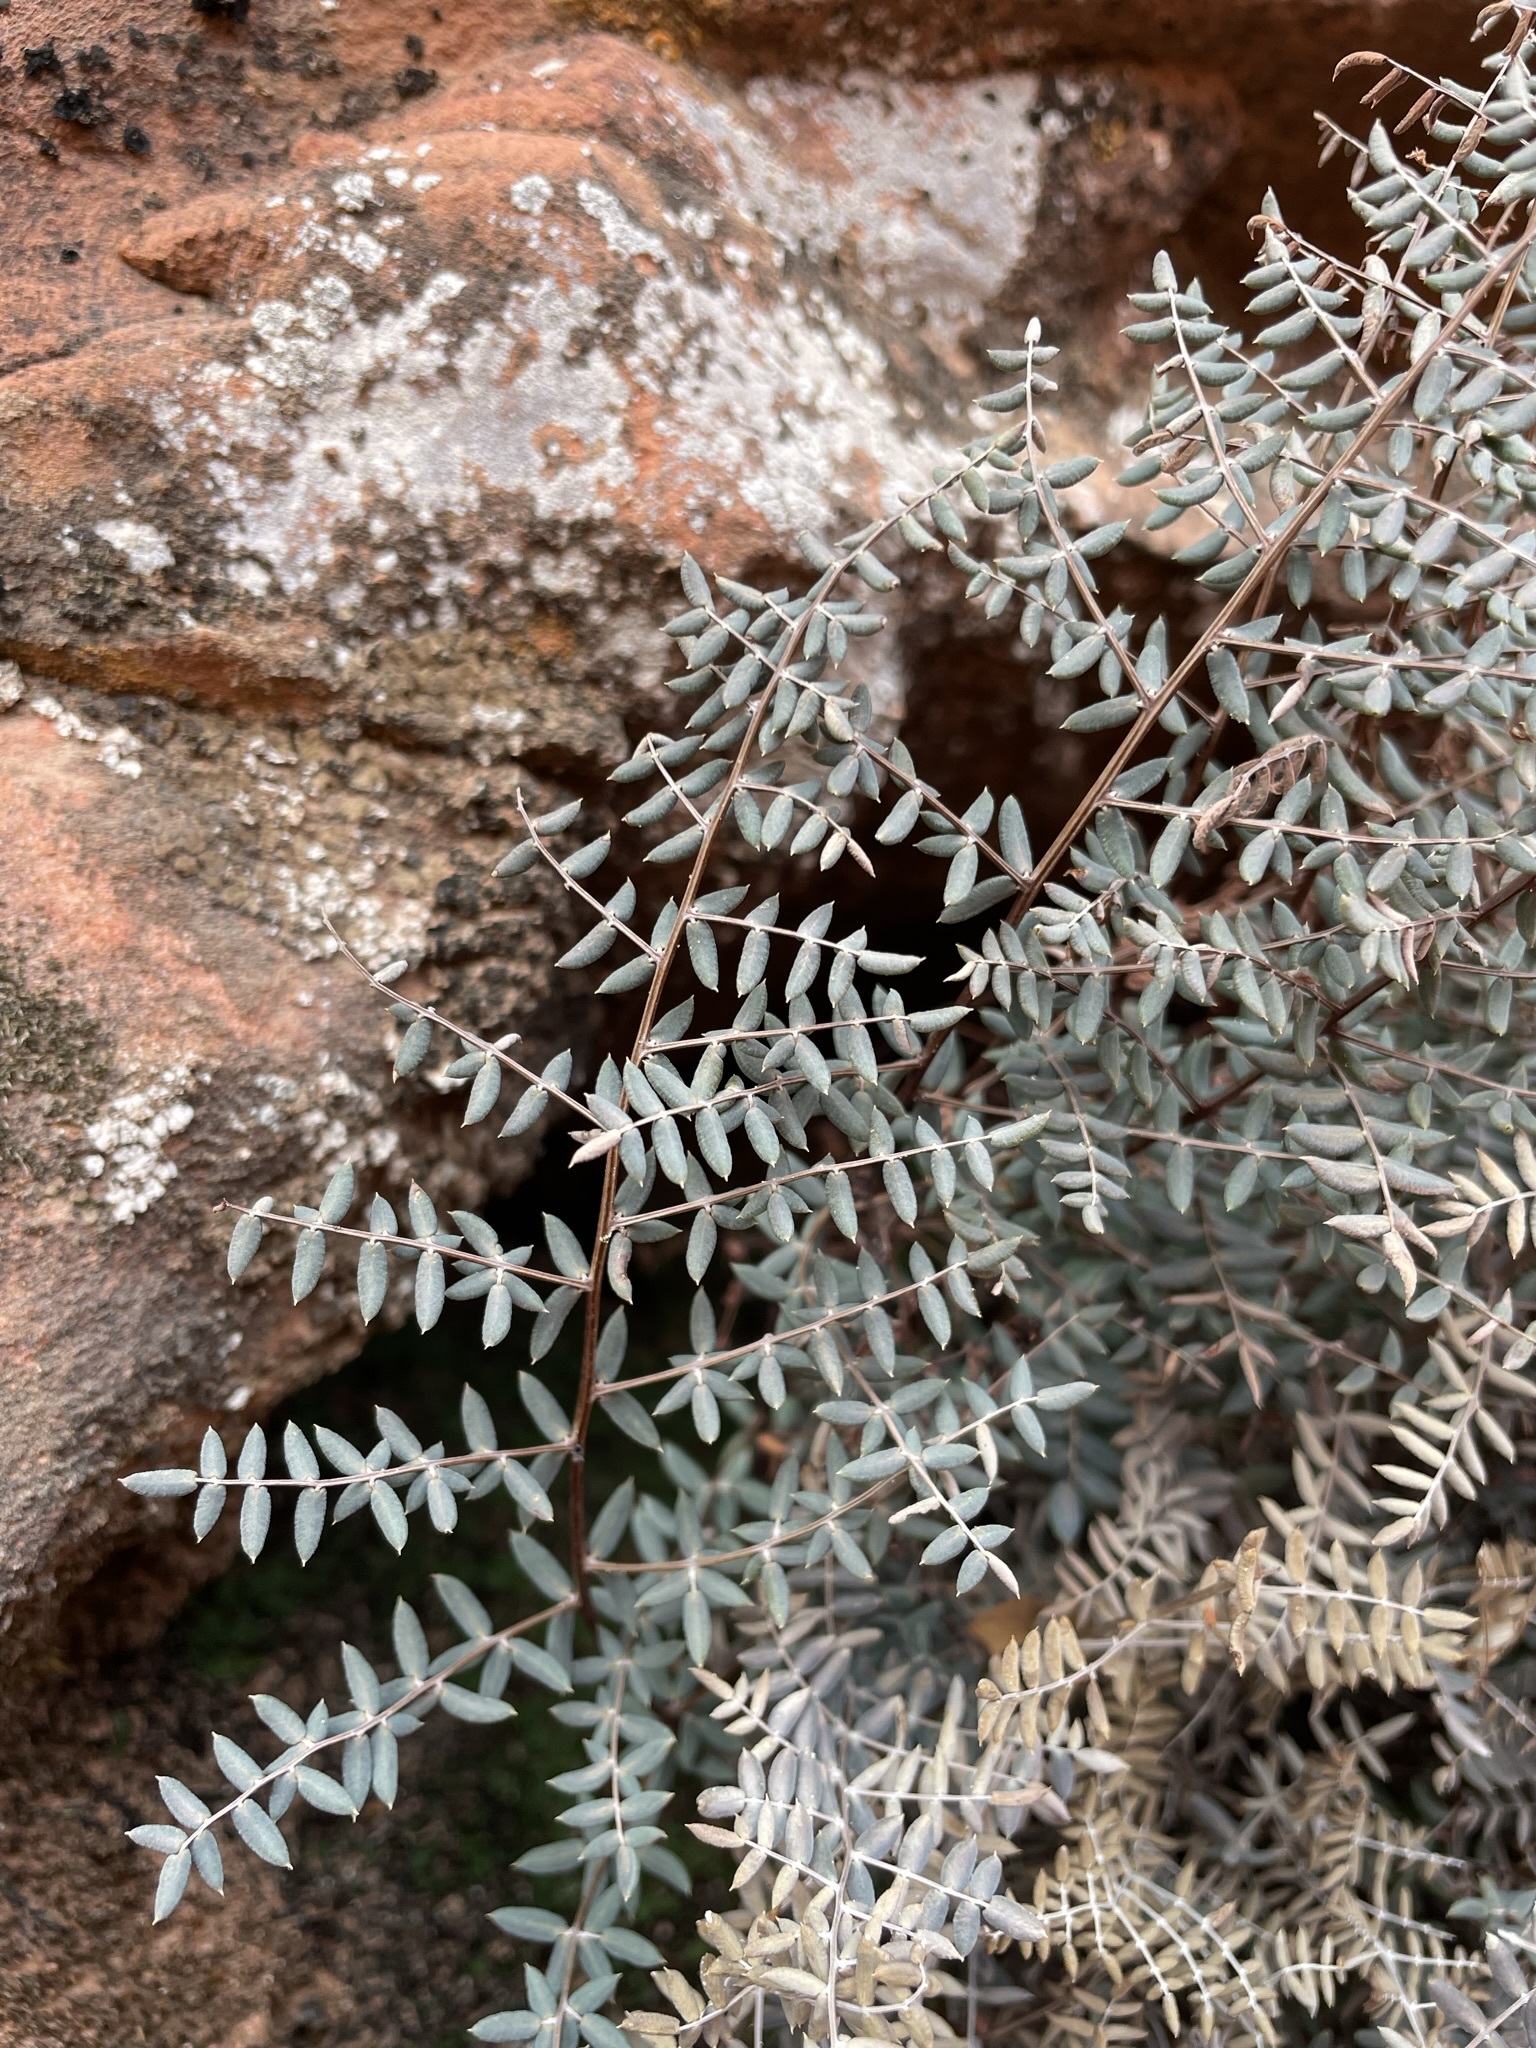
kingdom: Plantae
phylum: Tracheophyta
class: Polypodiopsida
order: Polypodiales
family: Pteridaceae
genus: Pellaea
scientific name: Pellaea truncata
